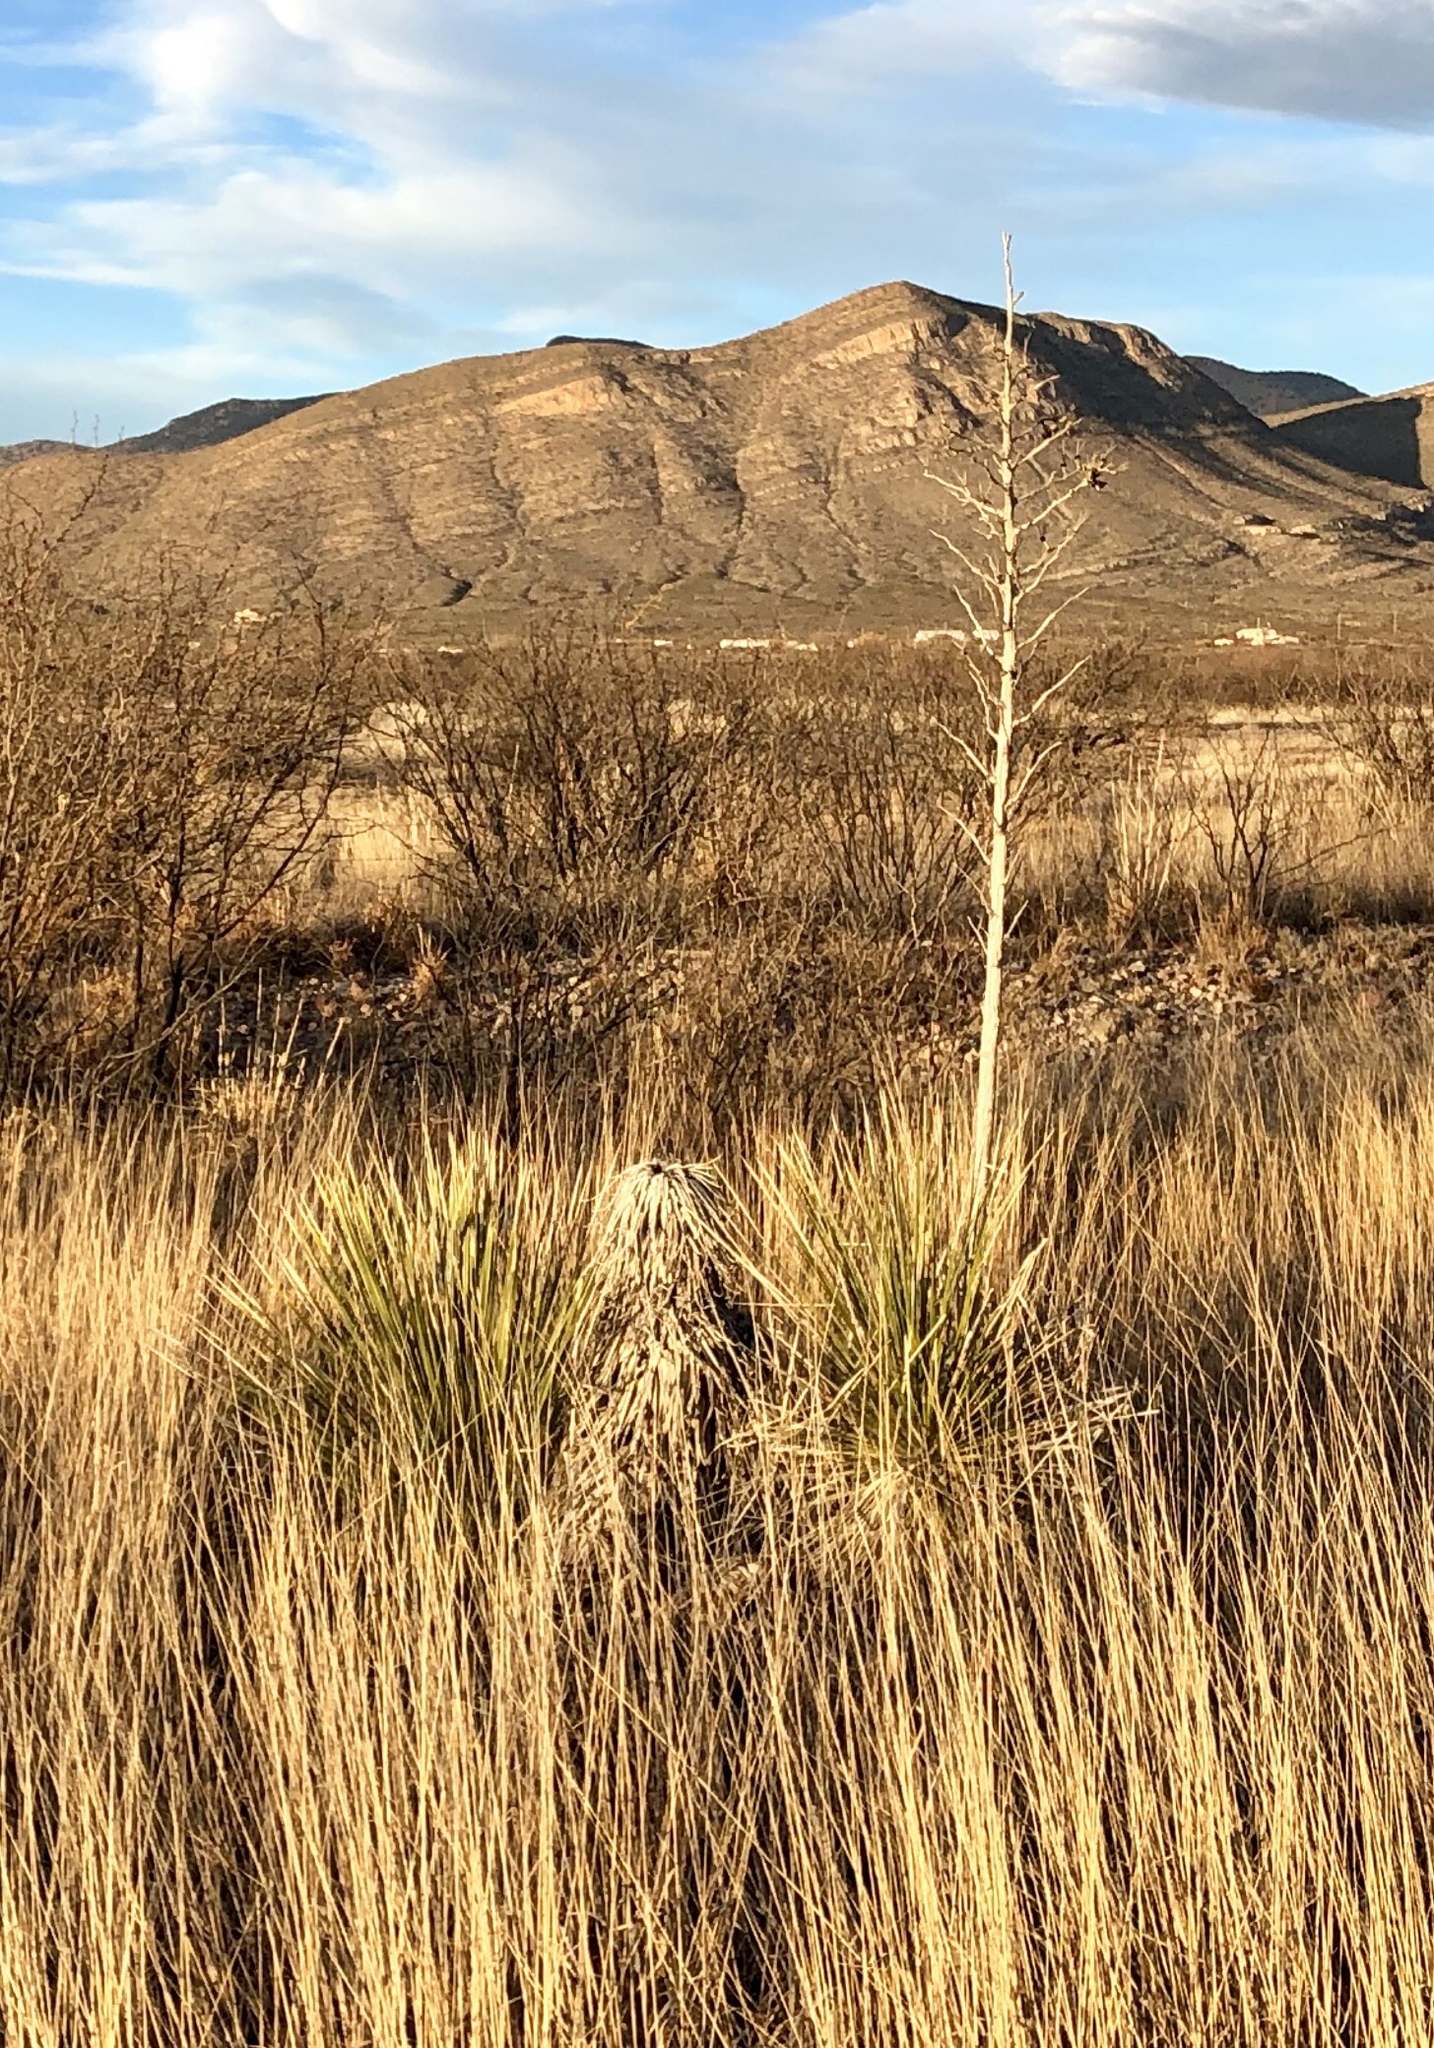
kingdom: Plantae
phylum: Tracheophyta
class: Liliopsida
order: Asparagales
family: Asparagaceae
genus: Yucca
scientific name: Yucca elata
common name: Palmella
